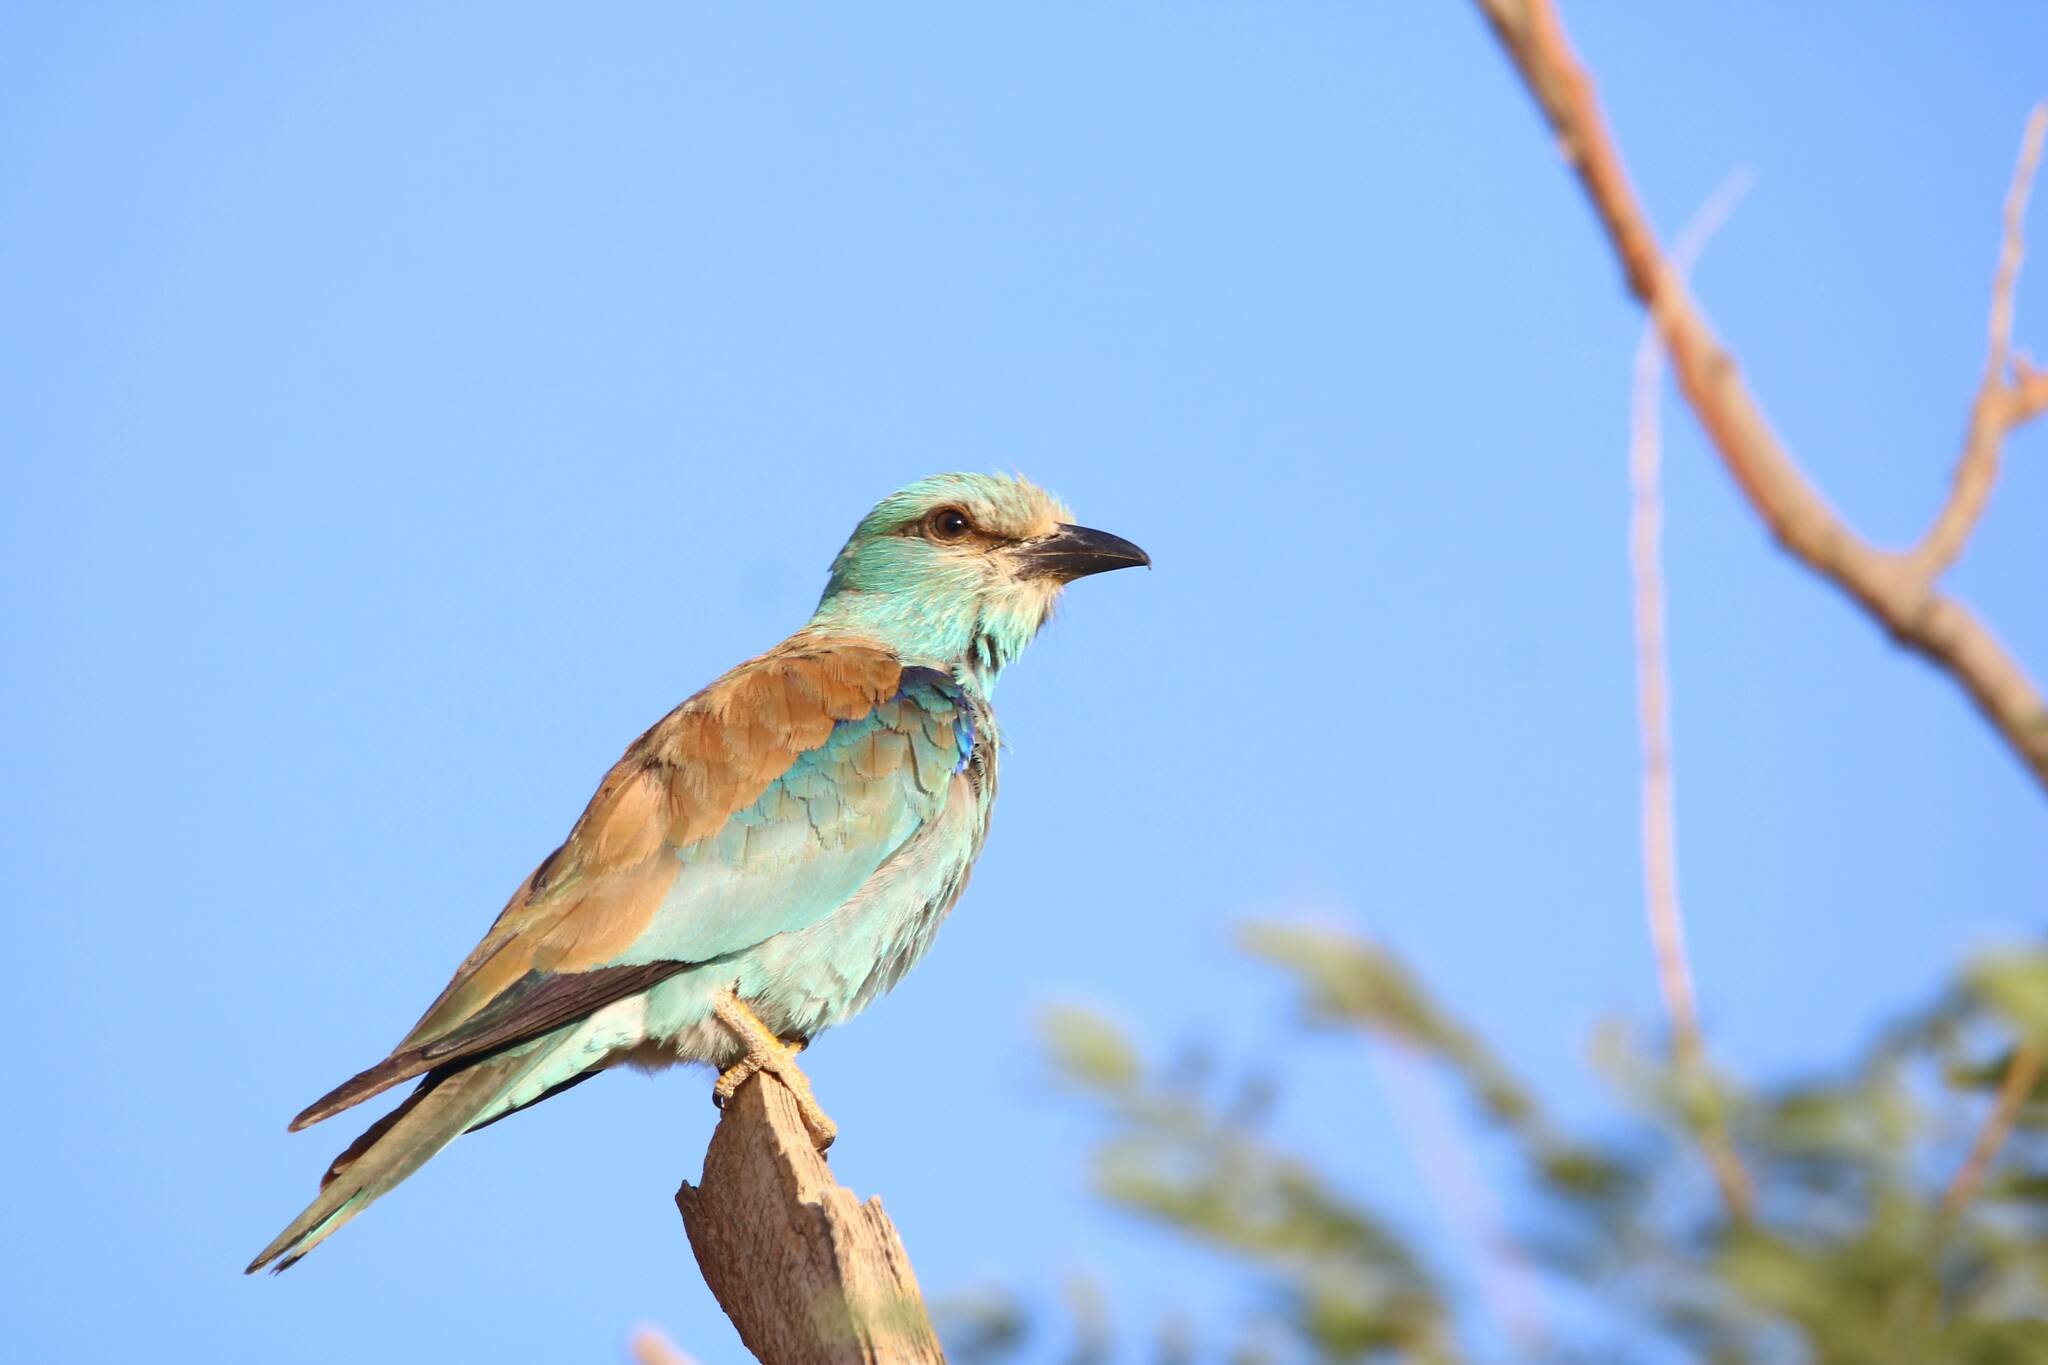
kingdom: Animalia
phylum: Chordata
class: Aves
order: Coraciiformes
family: Coraciidae
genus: Coracias
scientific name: Coracias garrulus
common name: European roller
